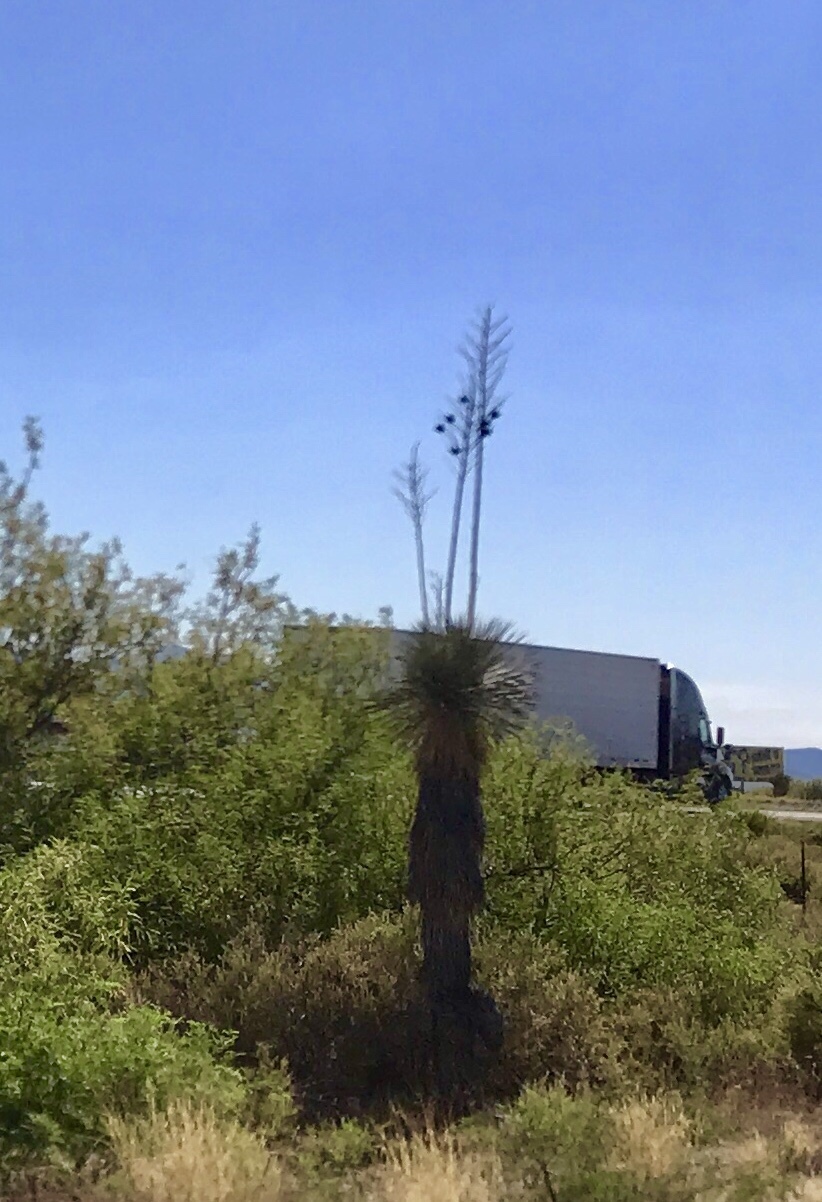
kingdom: Plantae
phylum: Tracheophyta
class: Liliopsida
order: Asparagales
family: Asparagaceae
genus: Yucca
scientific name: Yucca elata
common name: Palmella
